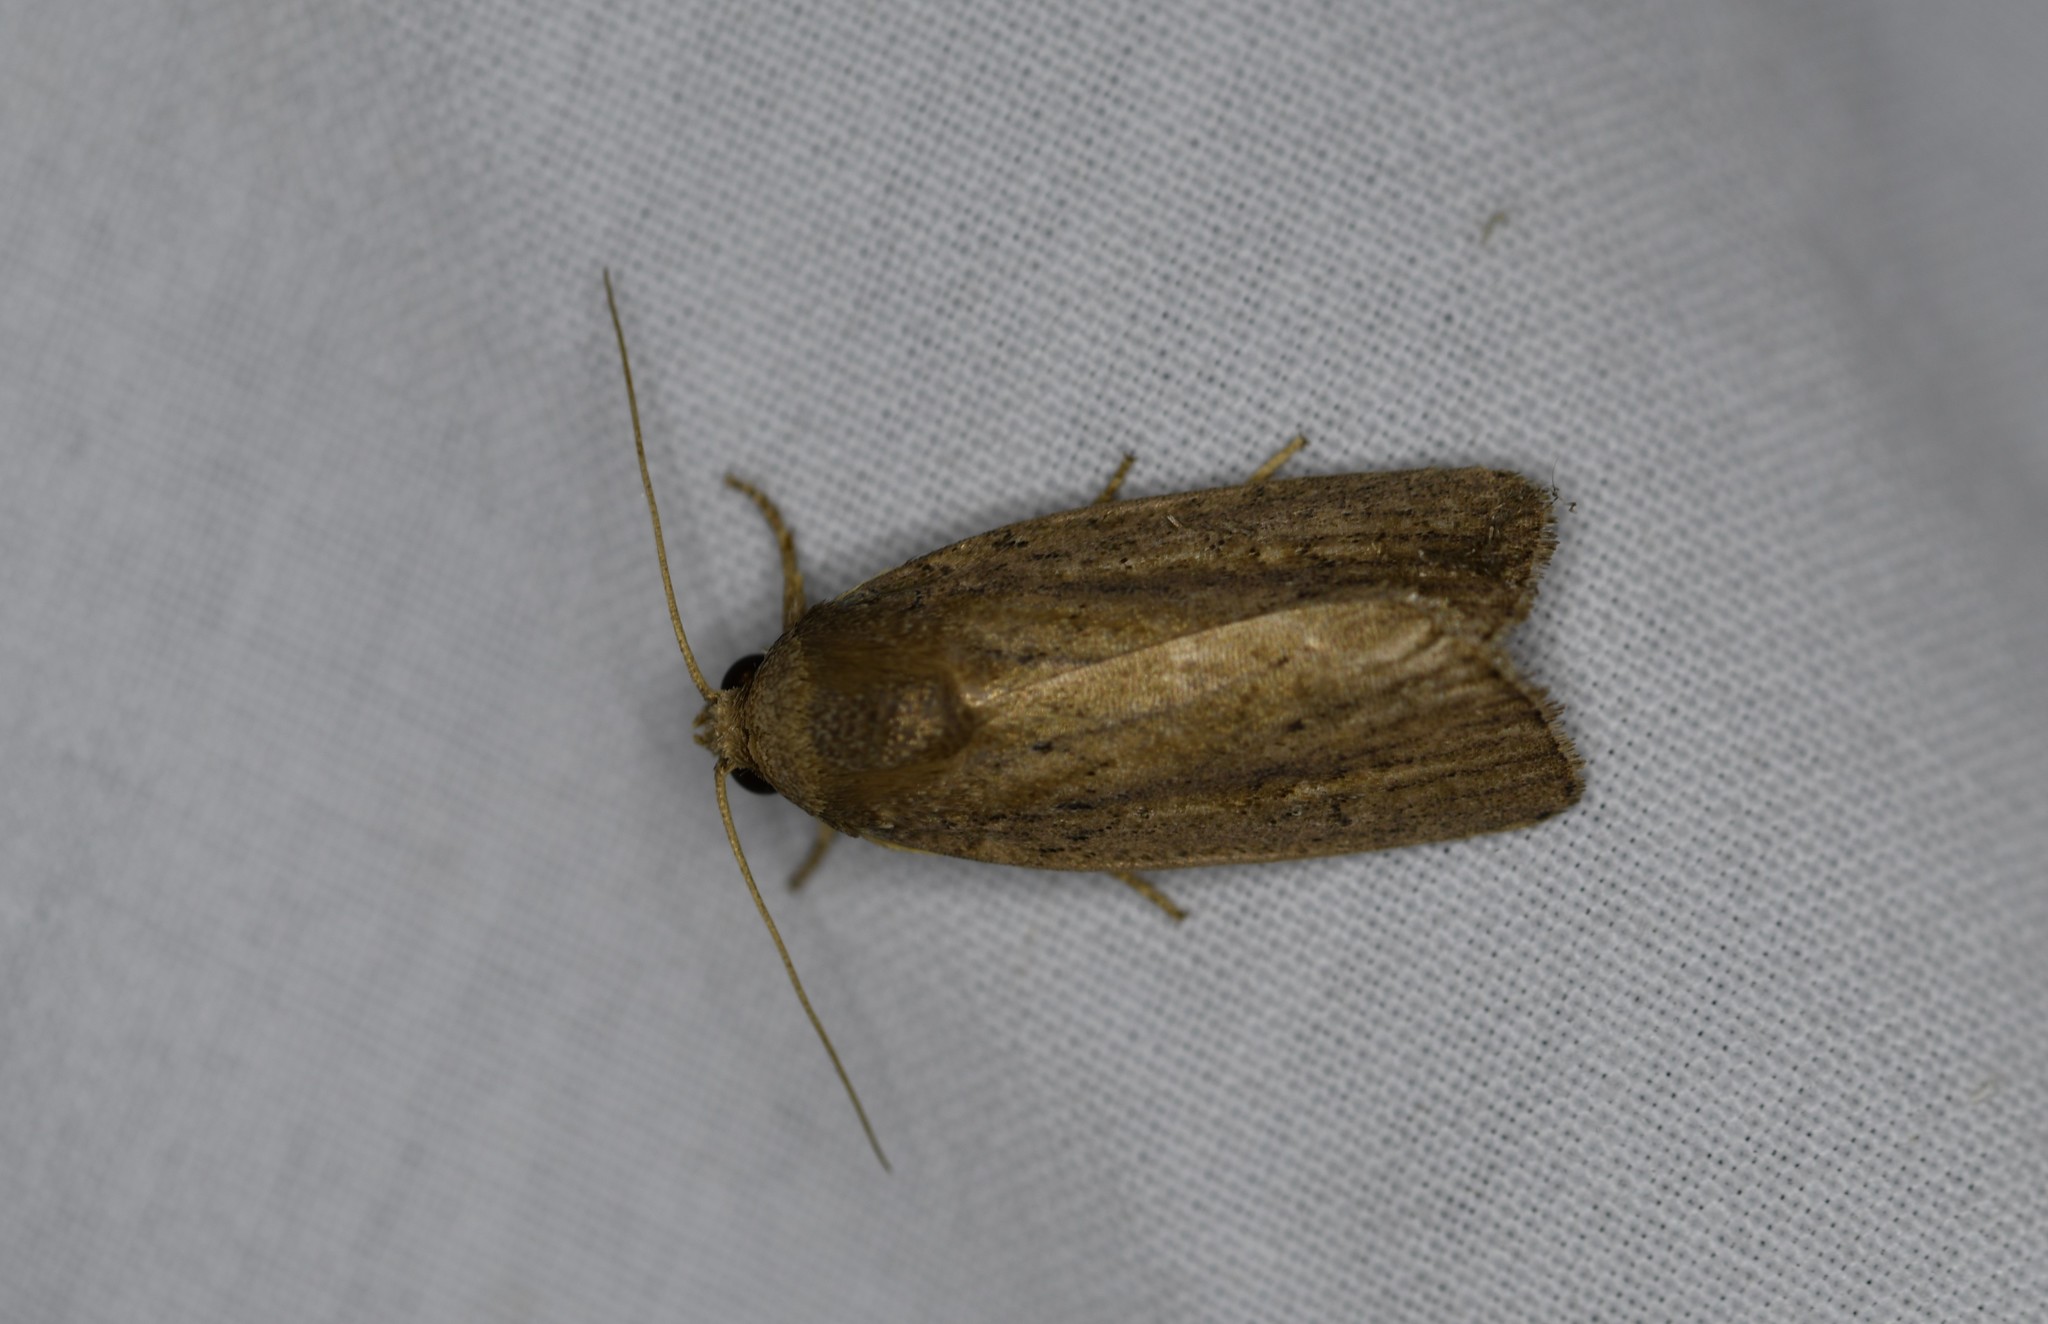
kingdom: Animalia
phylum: Arthropoda
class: Insecta
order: Lepidoptera
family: Noctuidae
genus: Athetis
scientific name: Athetis hospes
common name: Porter's rustic
